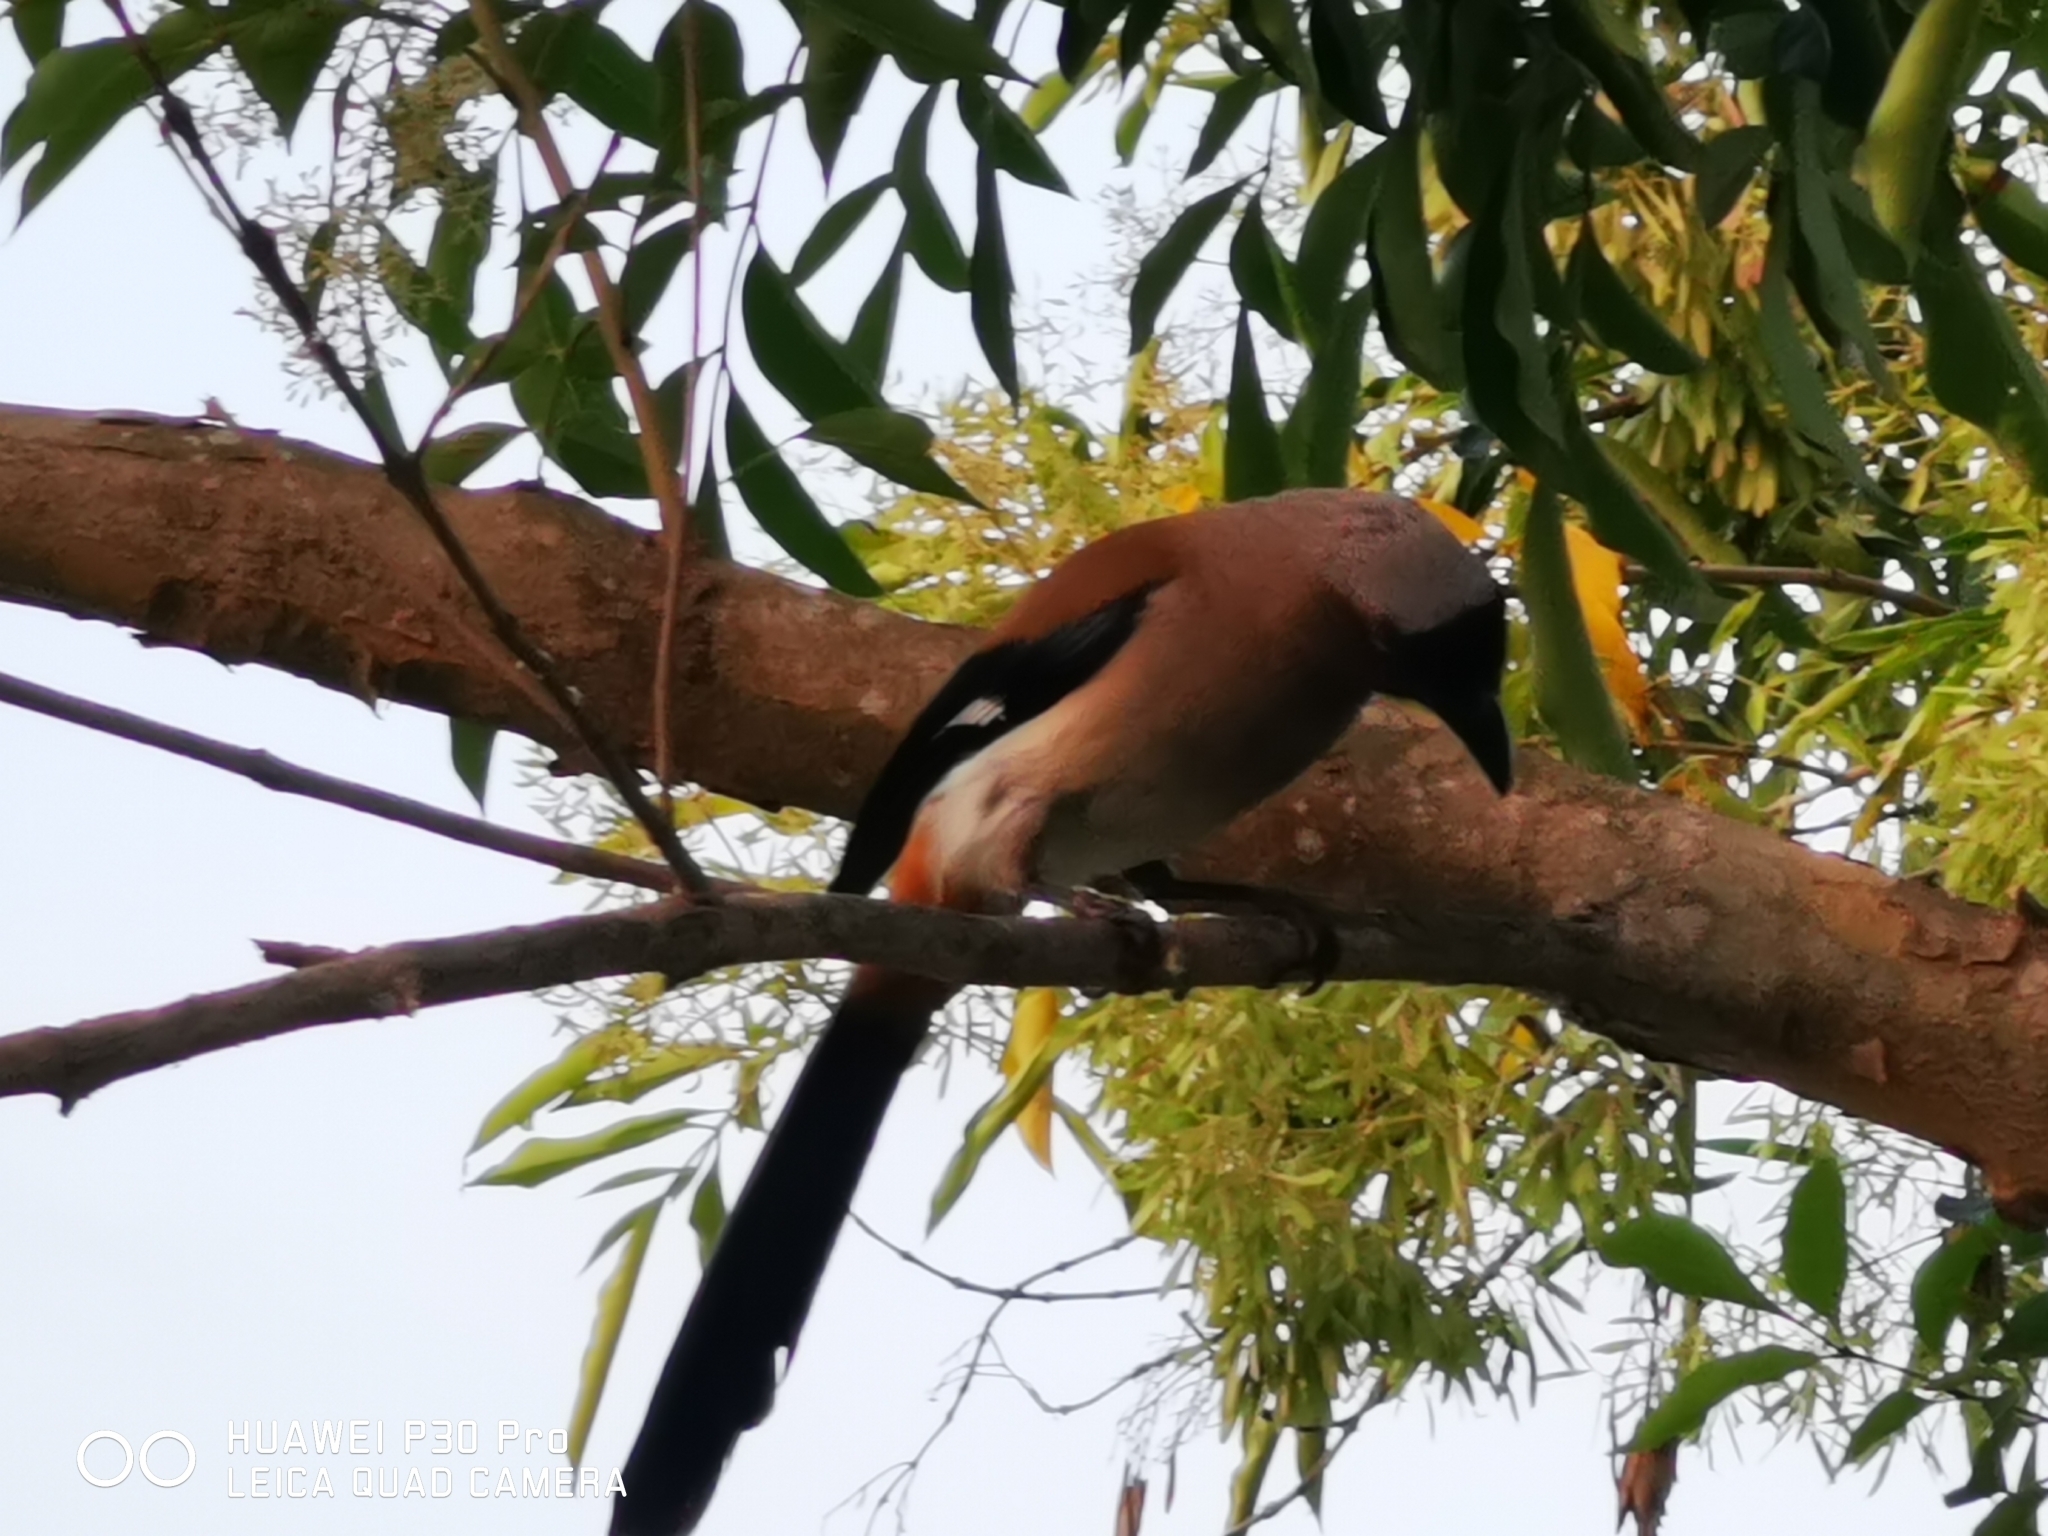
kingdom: Animalia
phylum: Chordata
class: Aves
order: Passeriformes
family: Corvidae
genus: Dendrocitta
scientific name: Dendrocitta formosae
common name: Grey treepie
